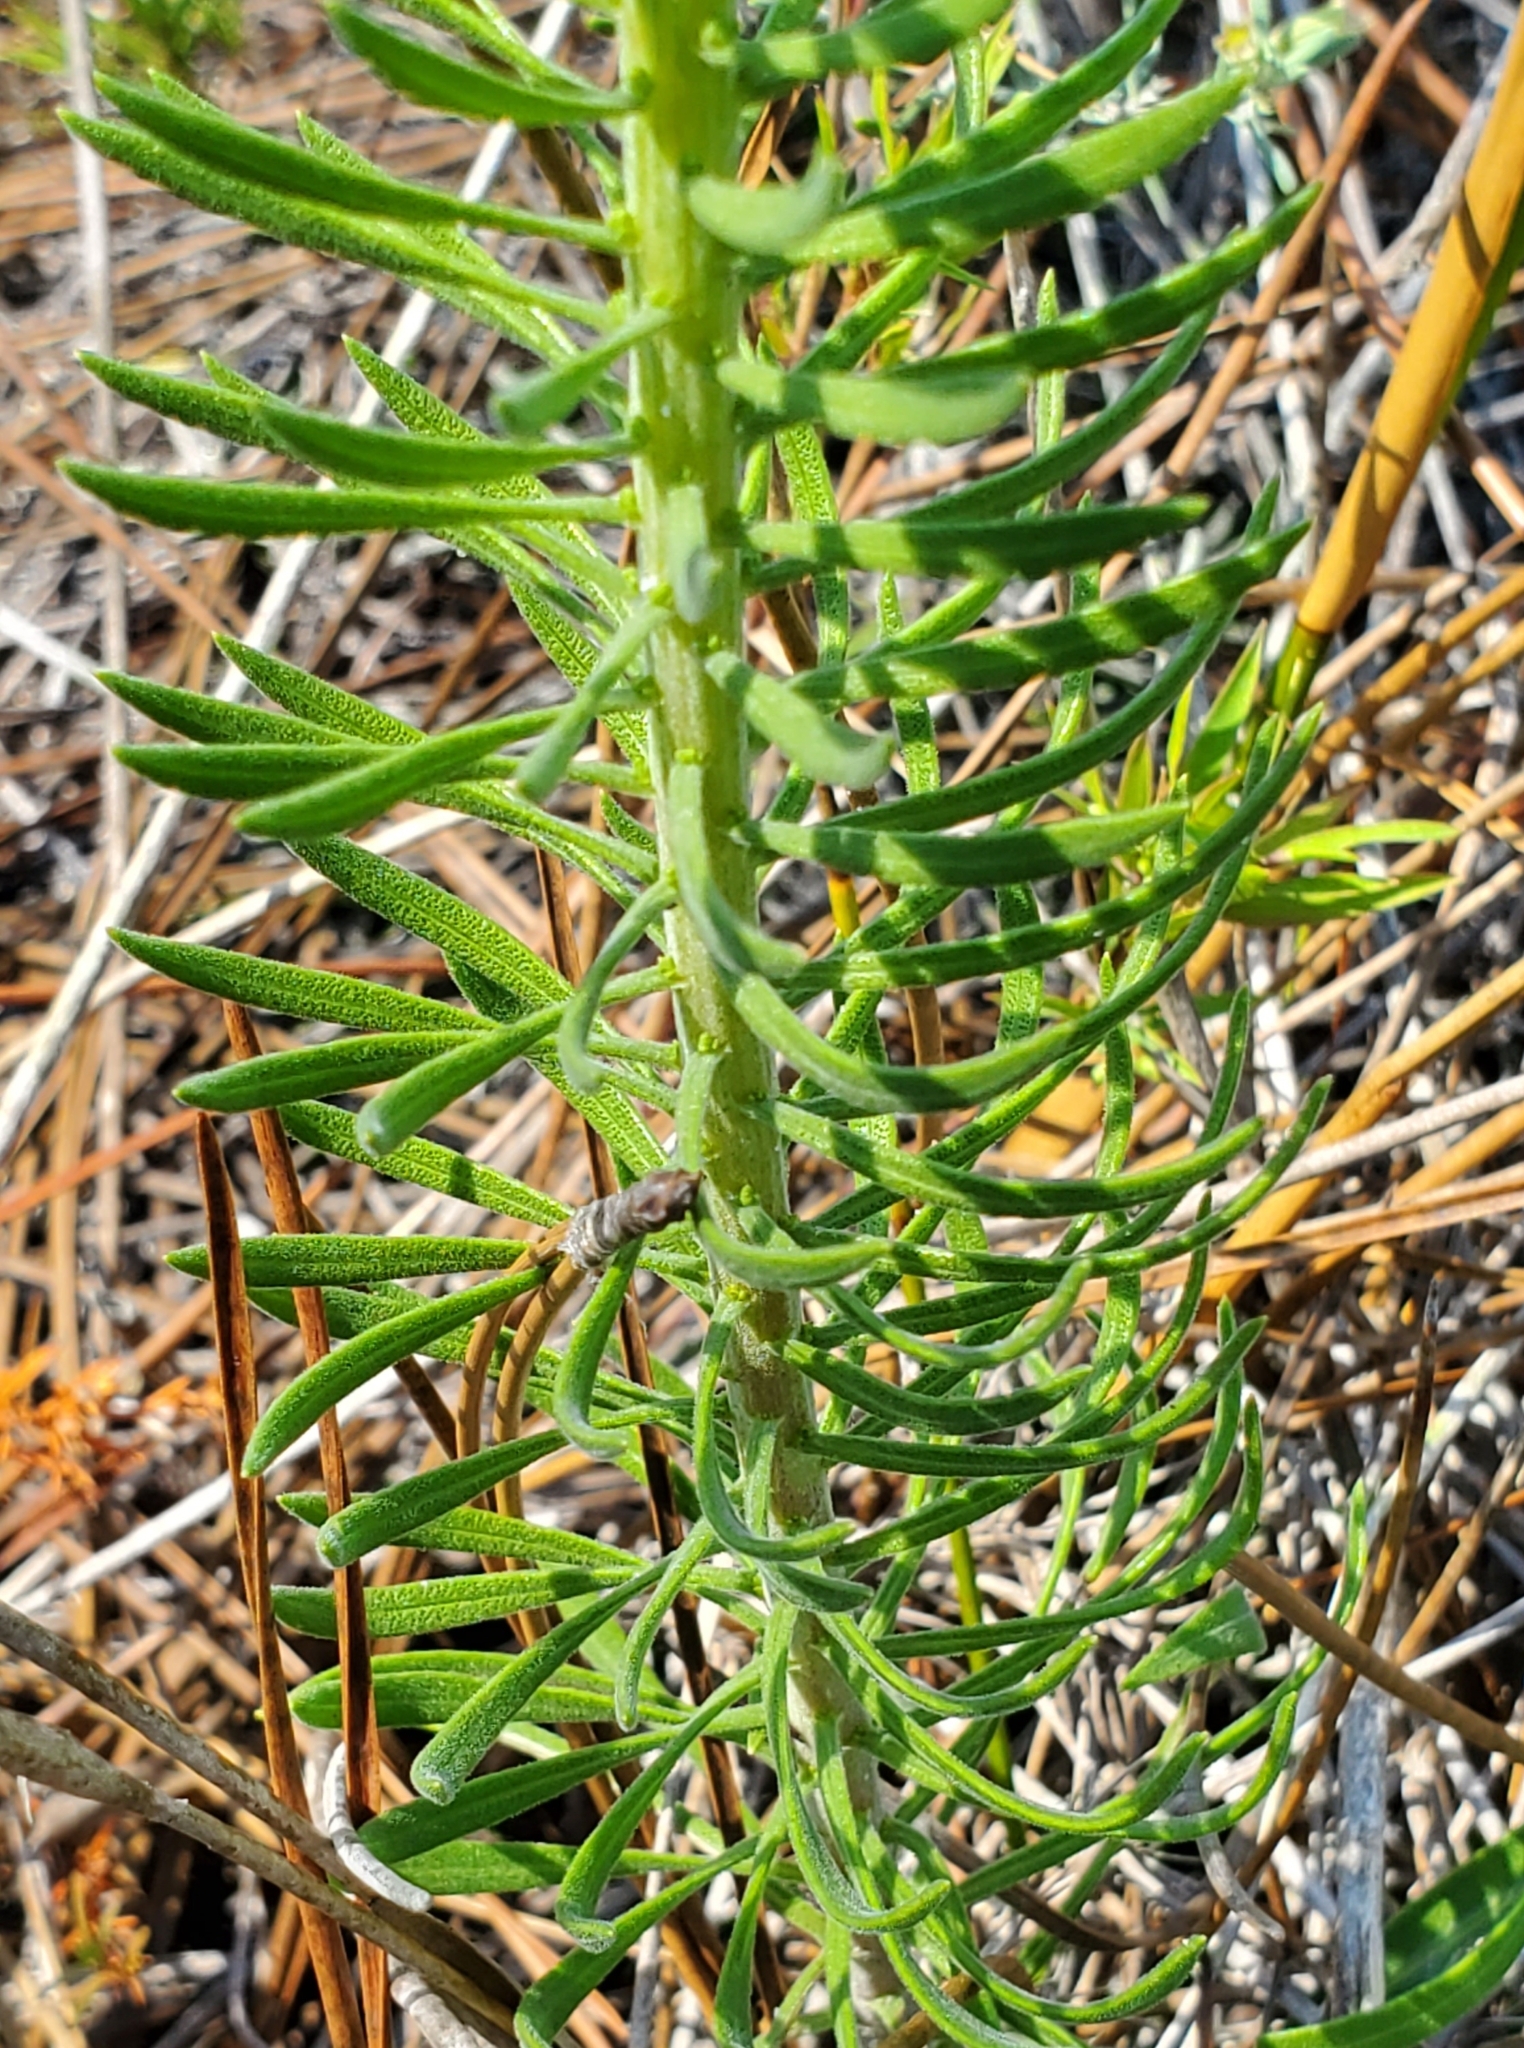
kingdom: Plantae
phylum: Tracheophyta
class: Magnoliopsida
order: Asterales
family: Asteraceae
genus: Liatris
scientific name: Liatris chapmanii
